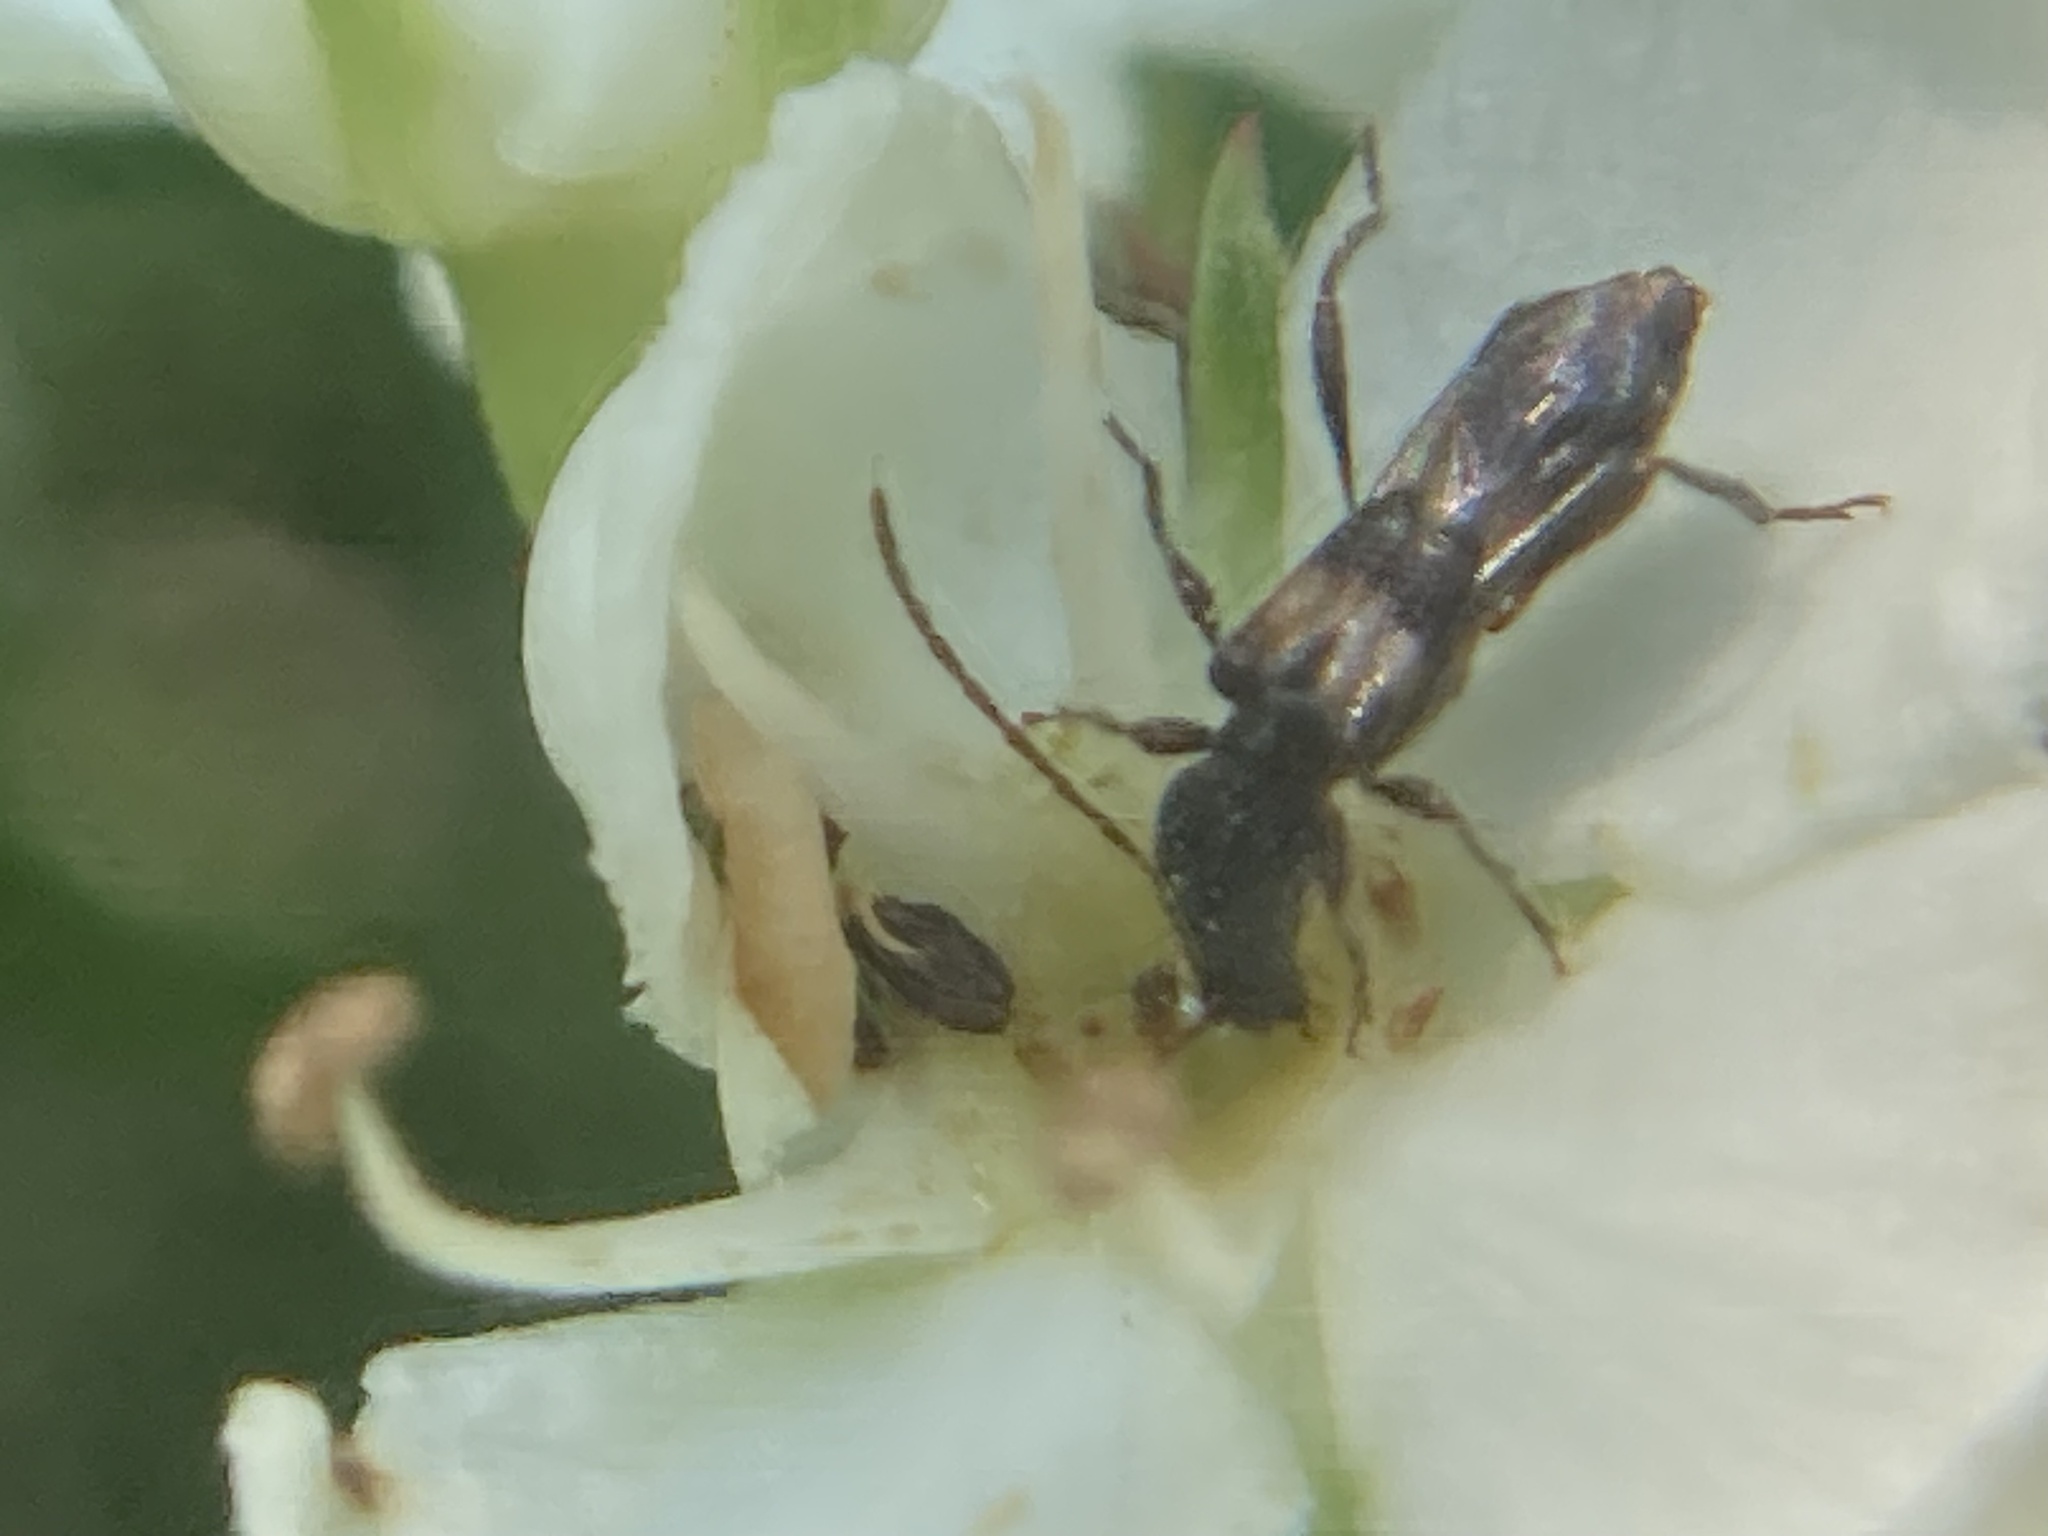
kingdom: Animalia
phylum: Arthropoda
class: Insecta
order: Coleoptera
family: Cerambycidae
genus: Molorchus
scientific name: Molorchus bimaculatus
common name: Bimaculate longhorn beetle
